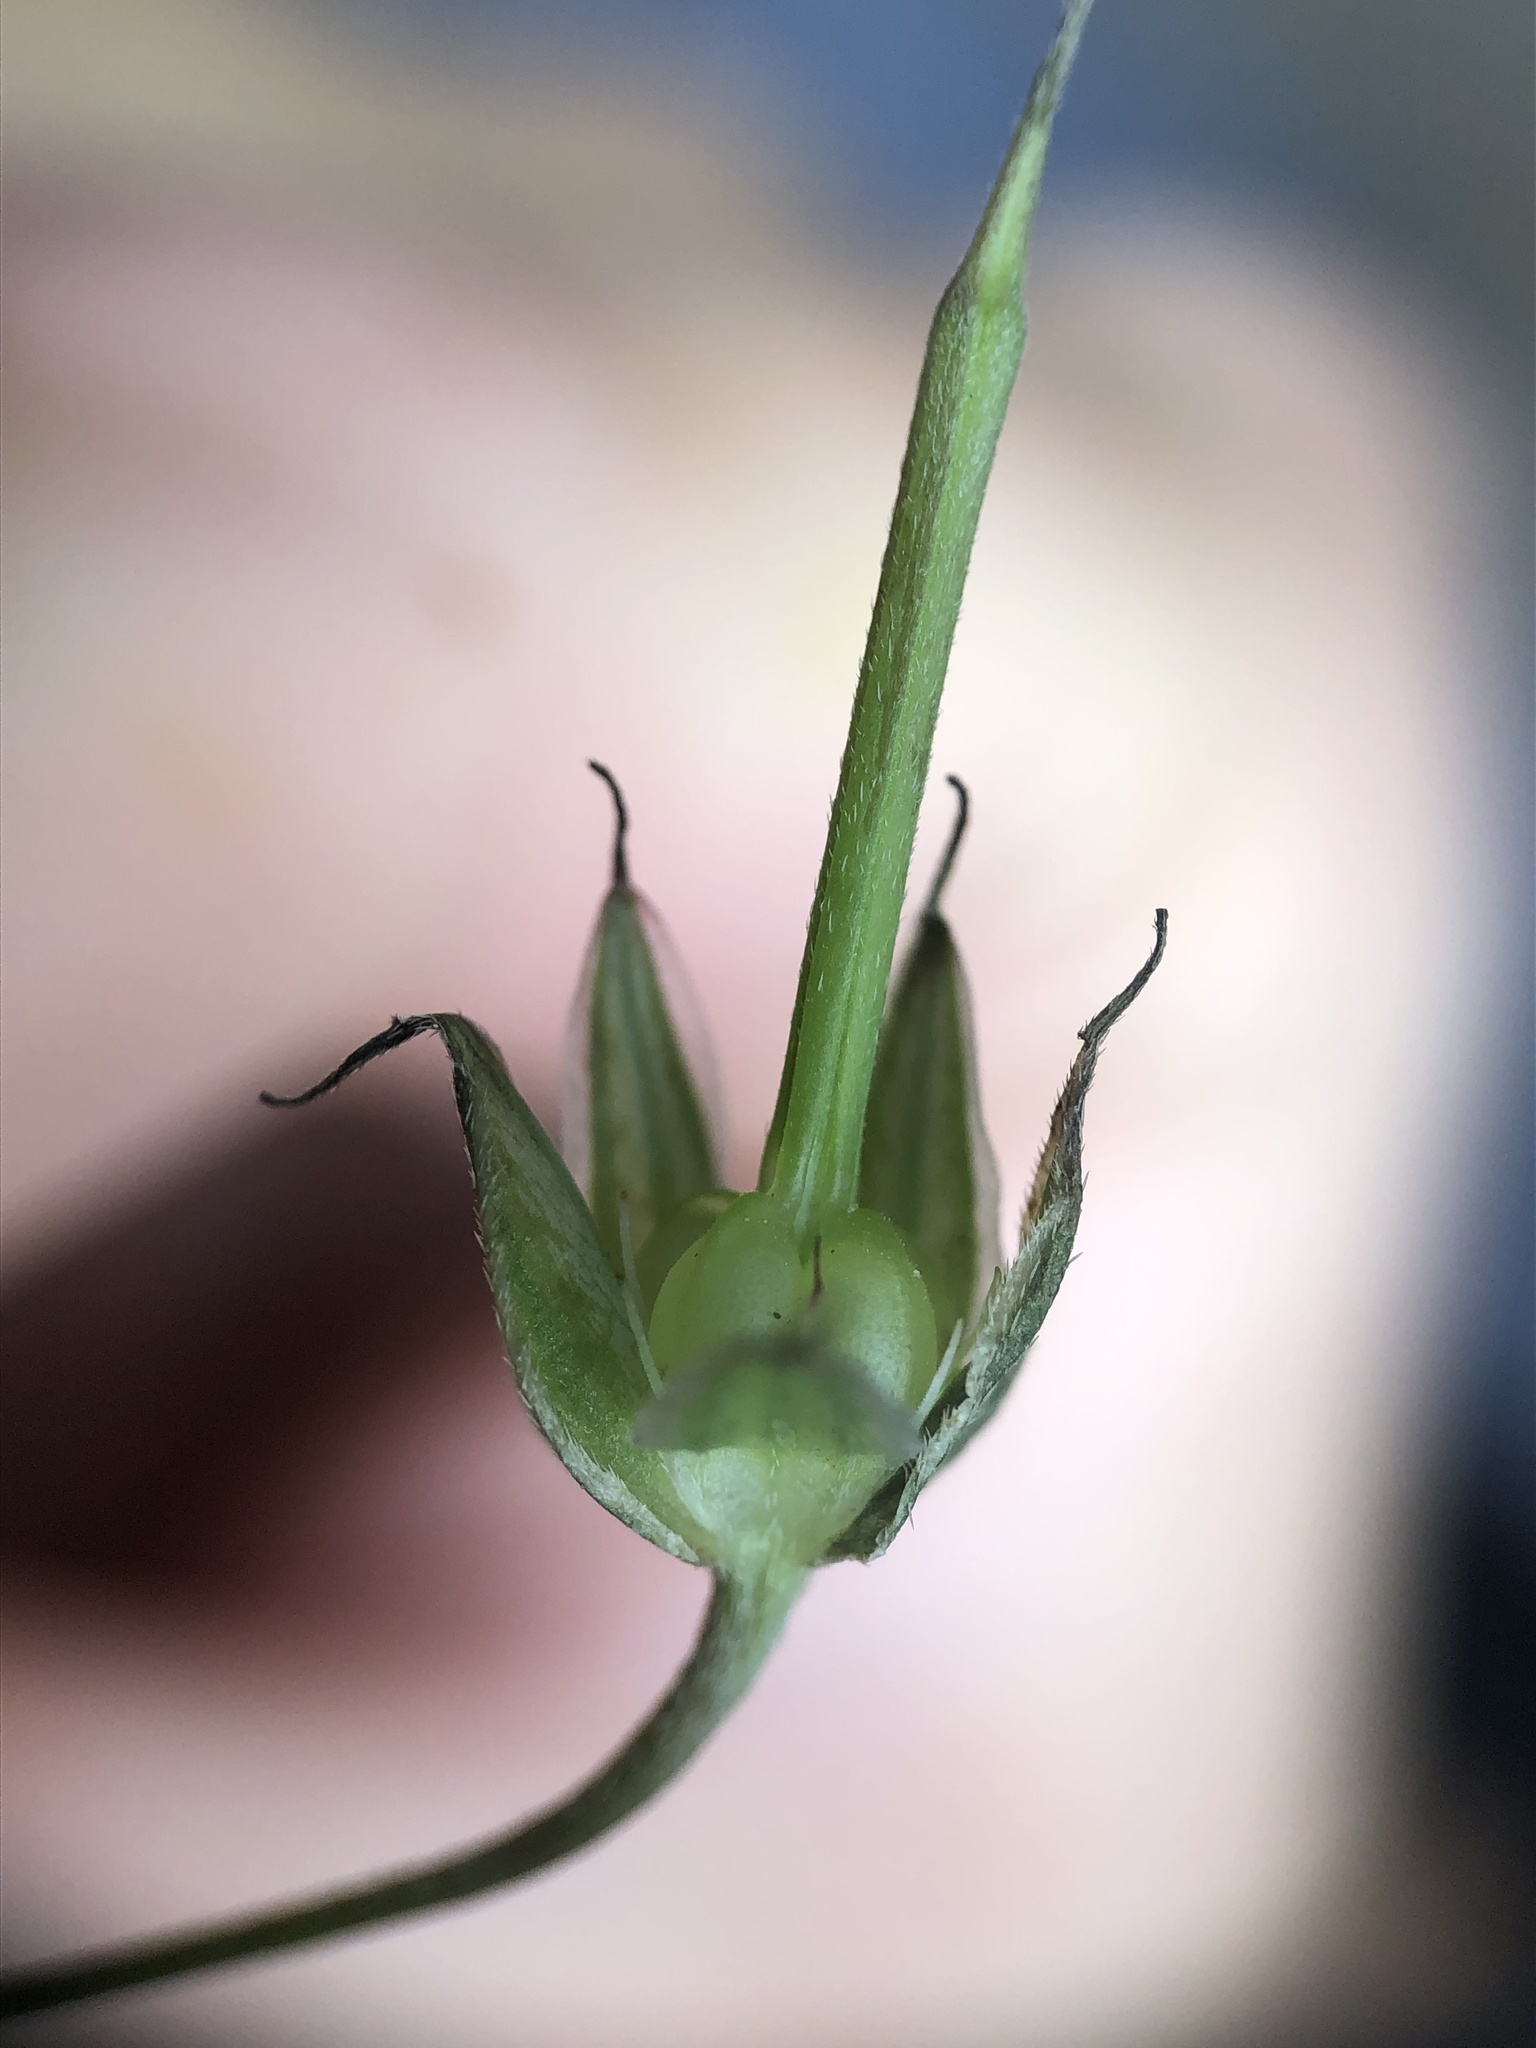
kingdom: Plantae
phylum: Tracheophyta
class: Magnoliopsida
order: Geraniales
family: Geraniaceae
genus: Geranium
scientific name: Geranium columbinum
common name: Long-stalked crane's-bill
